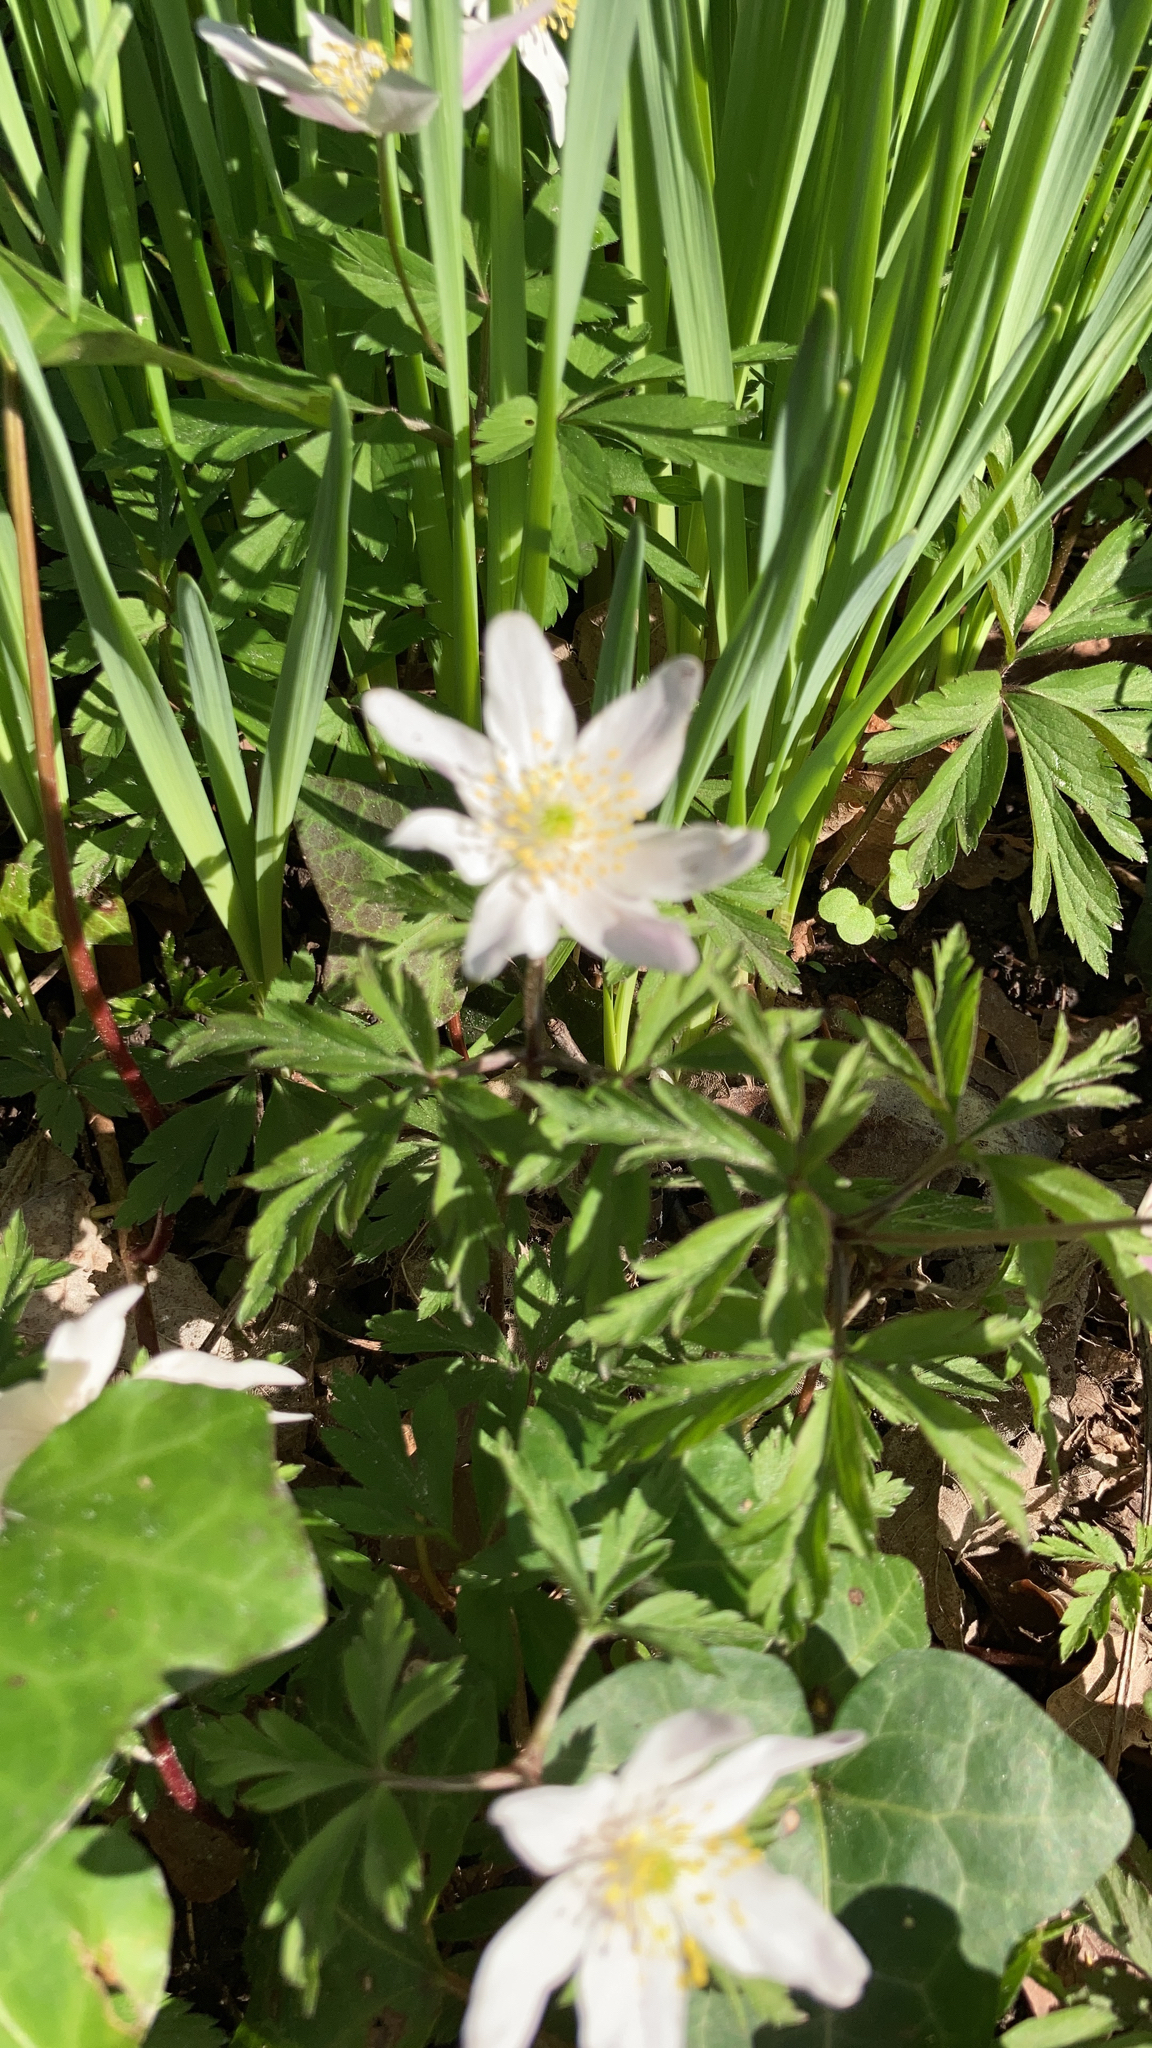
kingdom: Plantae
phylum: Tracheophyta
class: Magnoliopsida
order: Ranunculales
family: Ranunculaceae
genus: Anemone
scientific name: Anemone nemorosa
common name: Wood anemone
